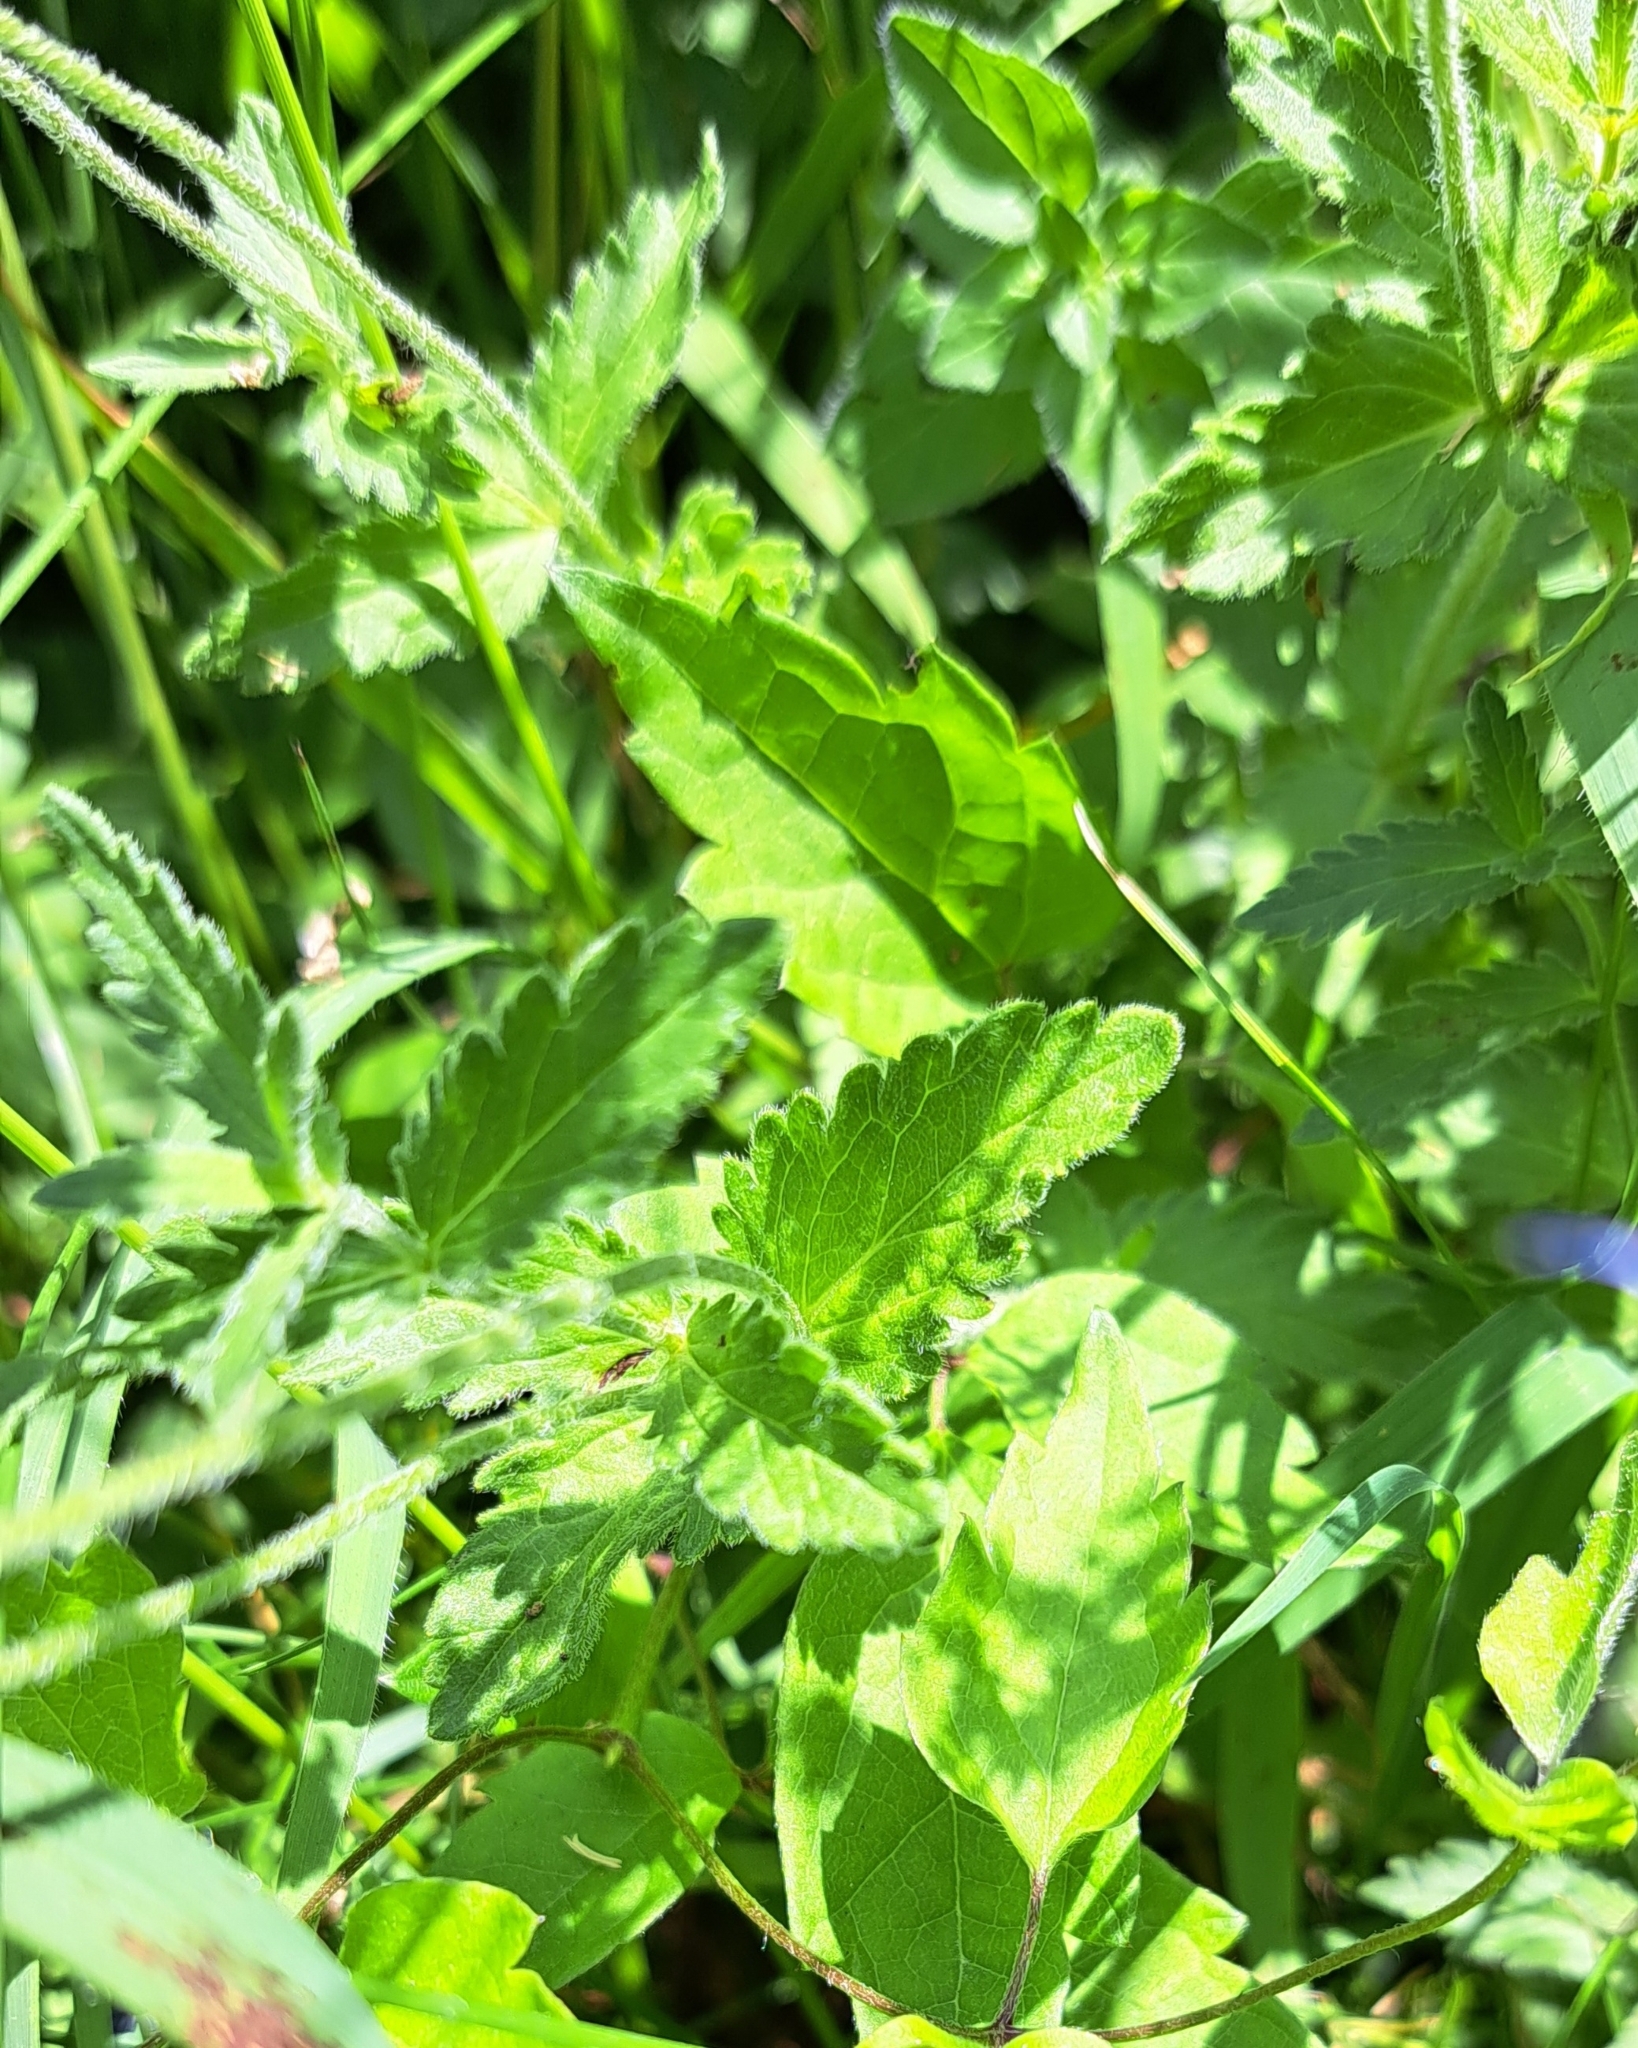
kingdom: Plantae
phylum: Tracheophyta
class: Magnoliopsida
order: Lamiales
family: Plantaginaceae
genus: Veronica
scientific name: Veronica teucrium
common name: Large speedwell
